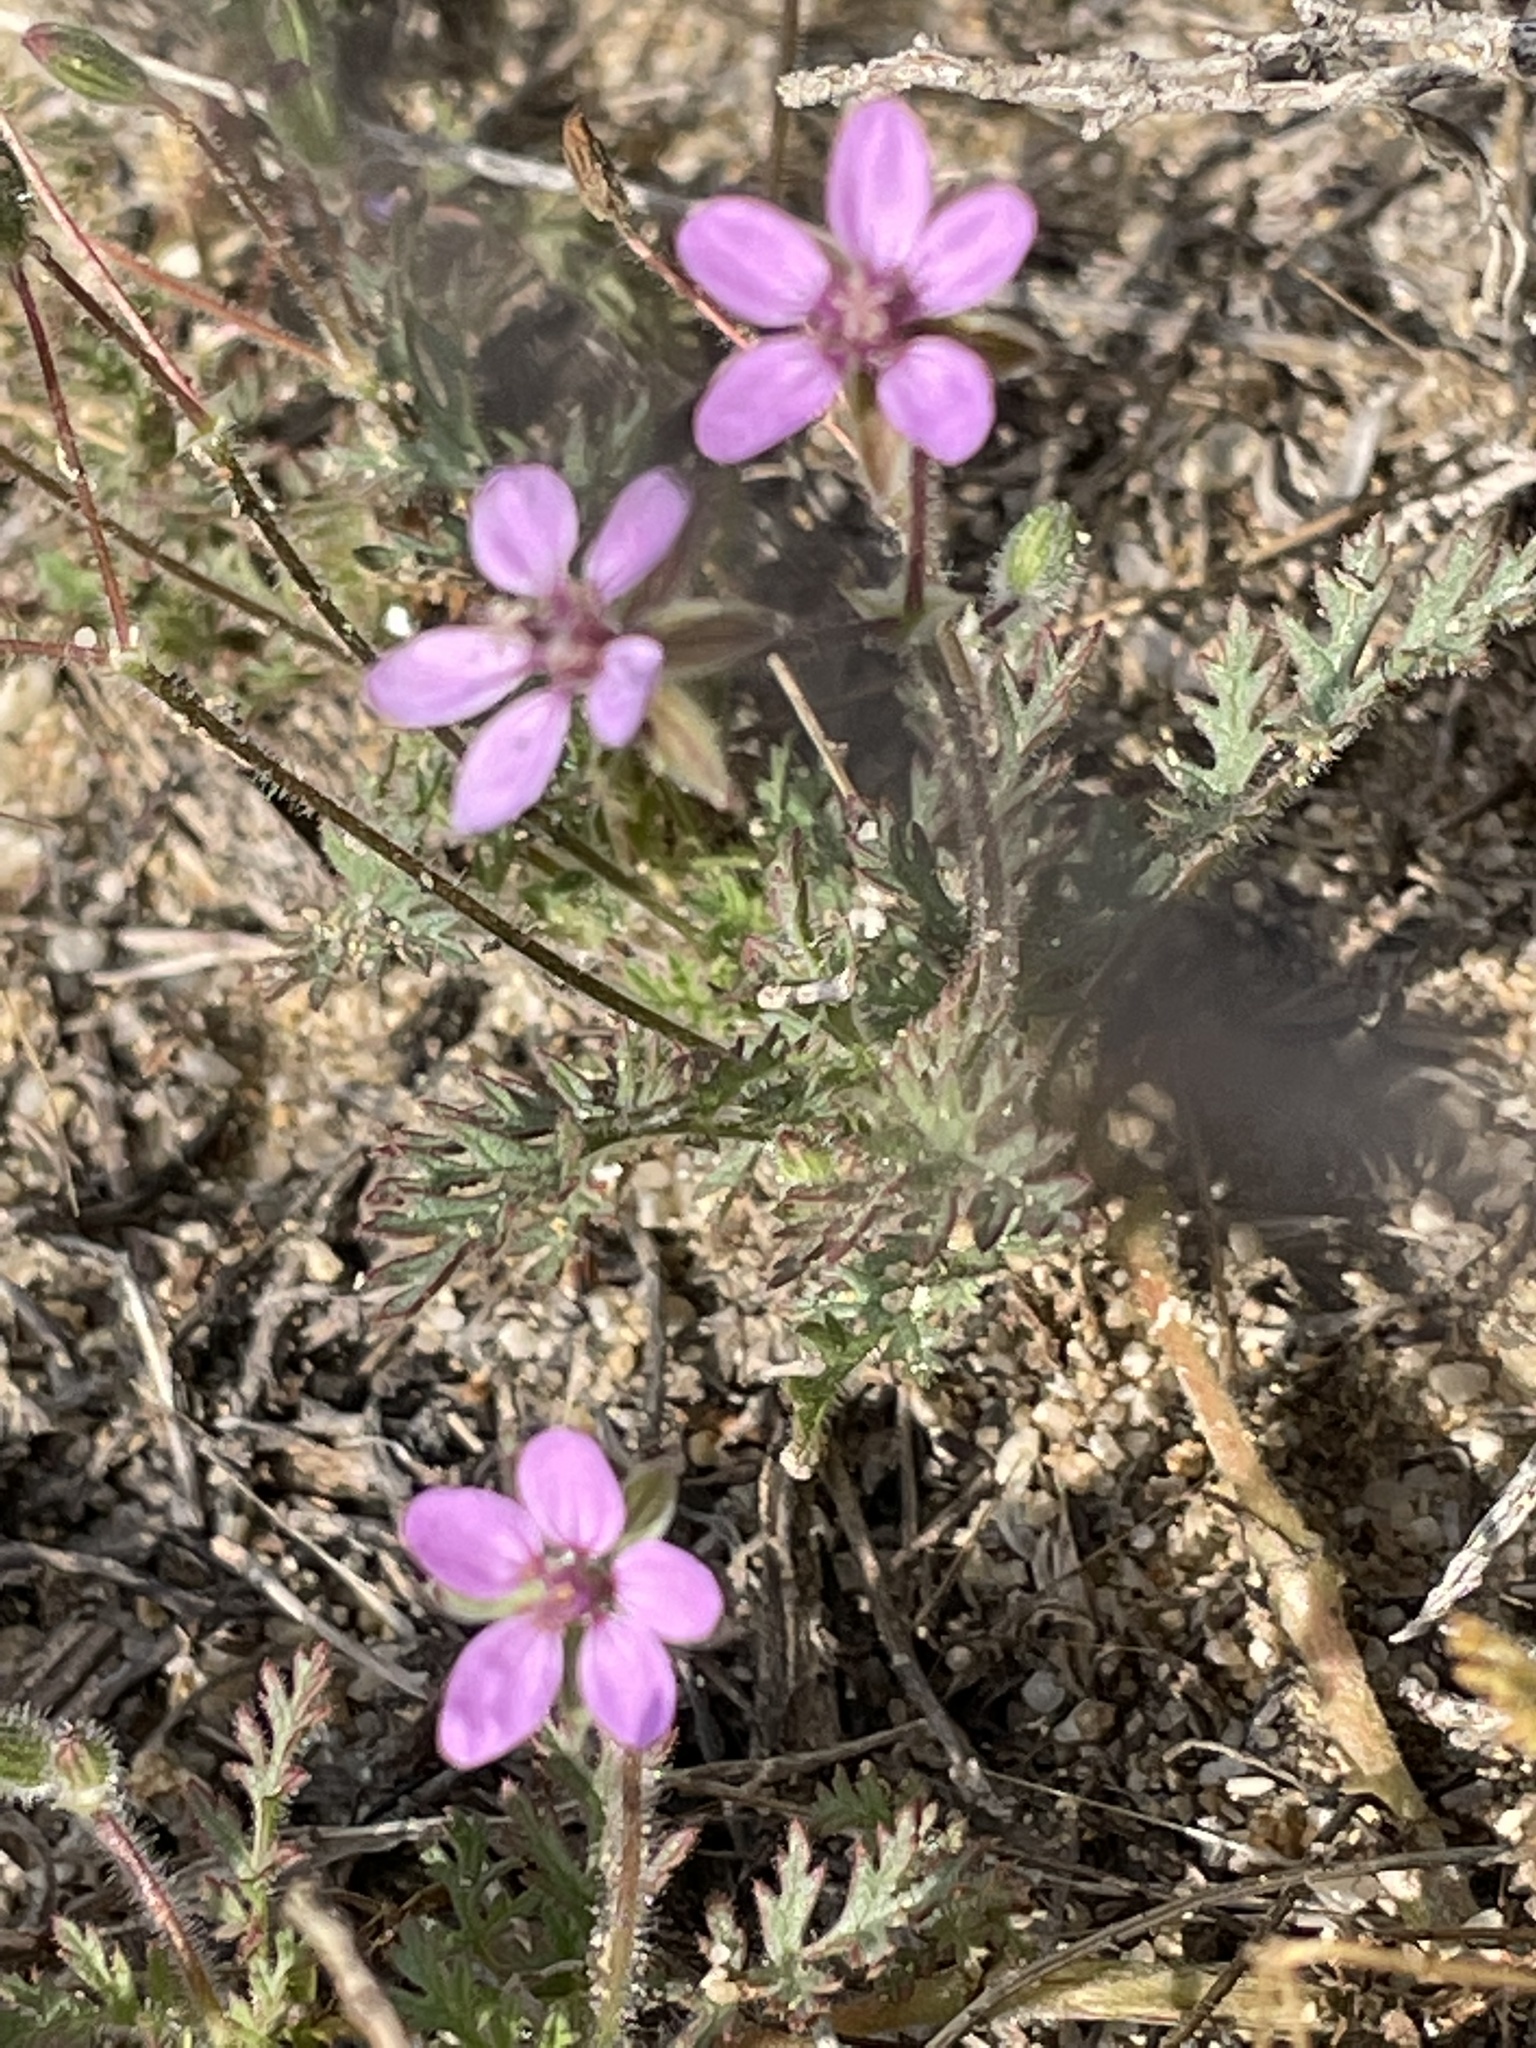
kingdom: Plantae
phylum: Tracheophyta
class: Magnoliopsida
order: Geraniales
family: Geraniaceae
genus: Erodium
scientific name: Erodium cicutarium
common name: Common stork's-bill
